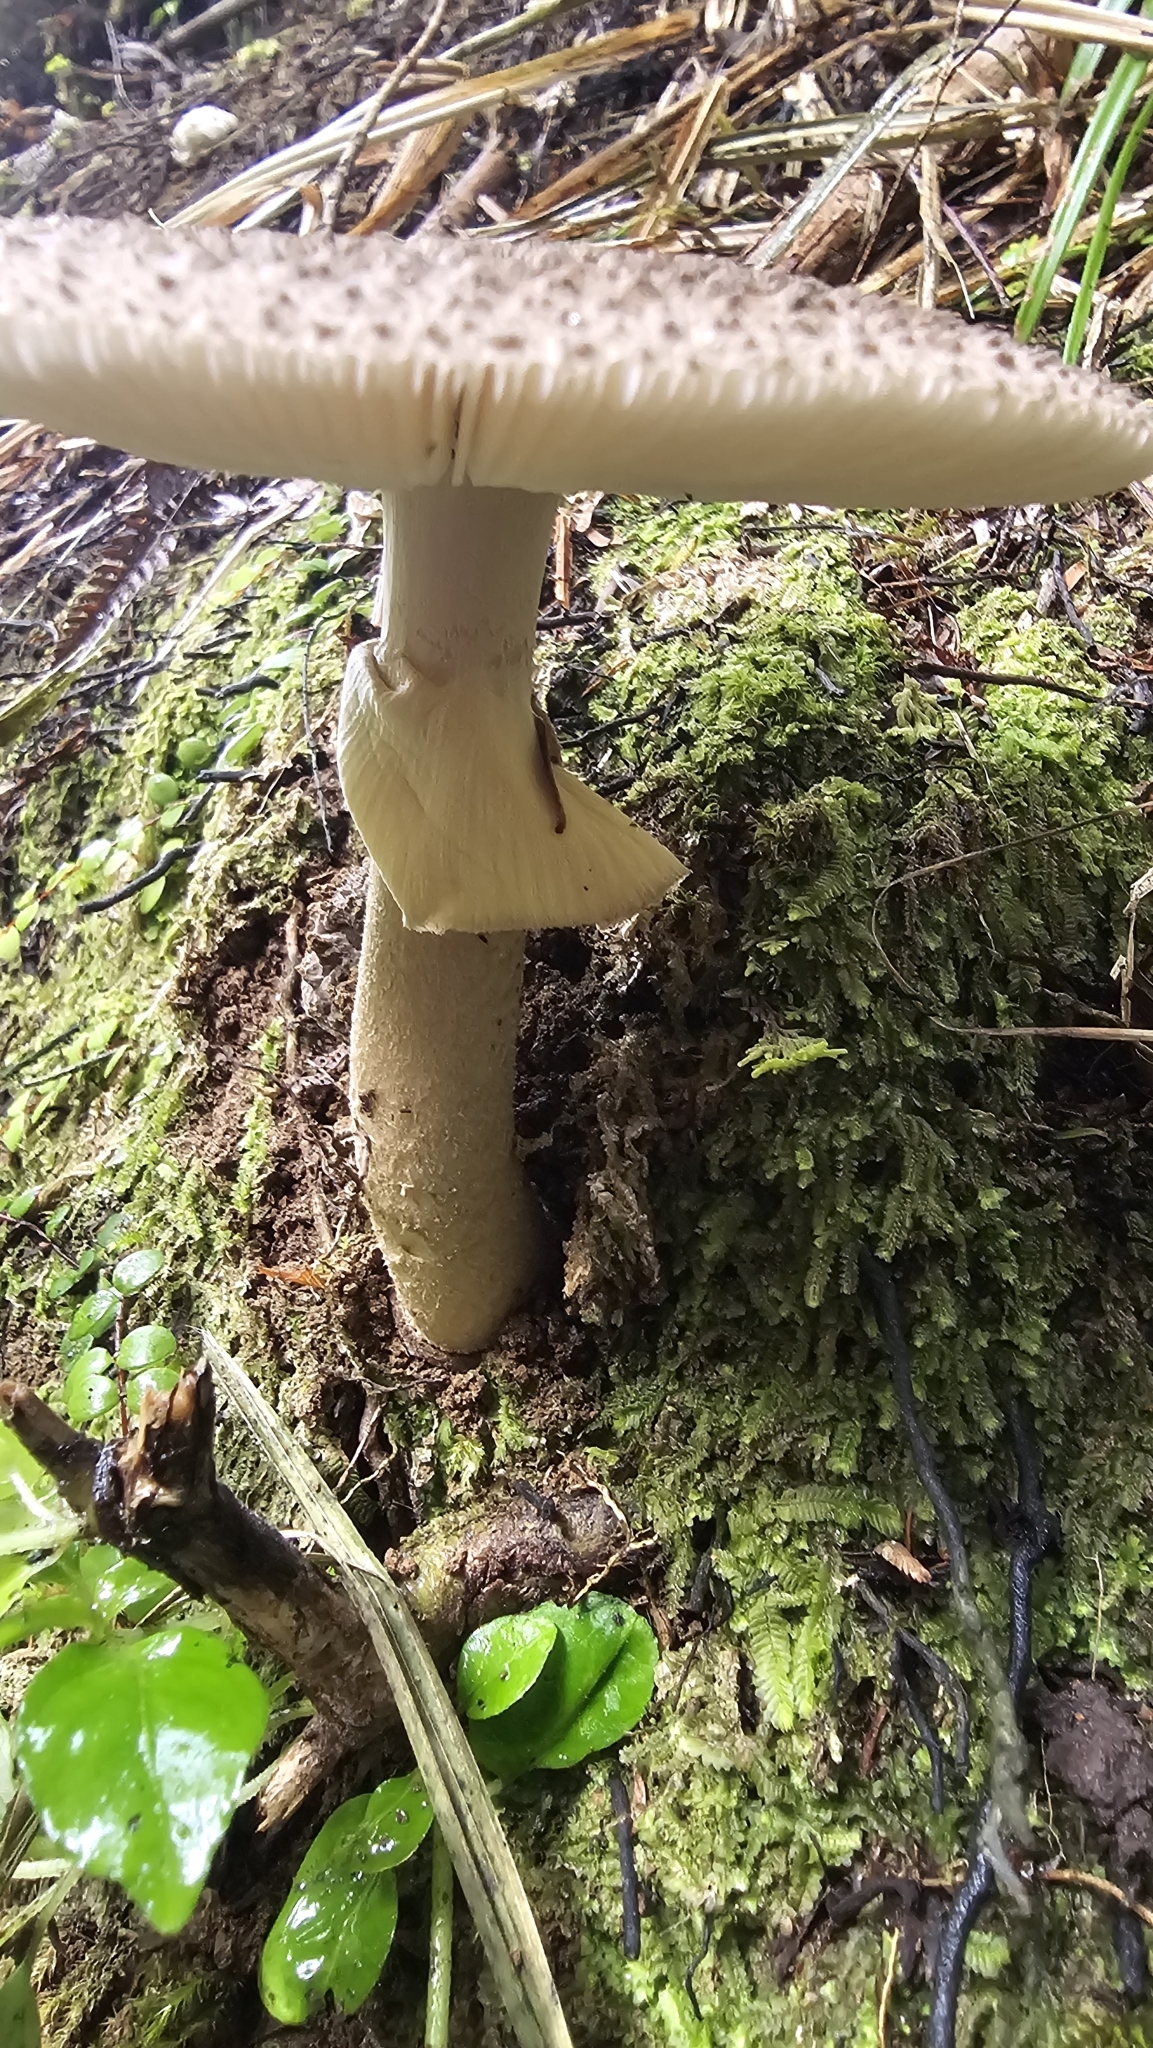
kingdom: Fungi
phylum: Basidiomycota
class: Agaricomycetes
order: Agaricales
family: Amanitaceae
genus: Amanita
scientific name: Amanita nothofagi
